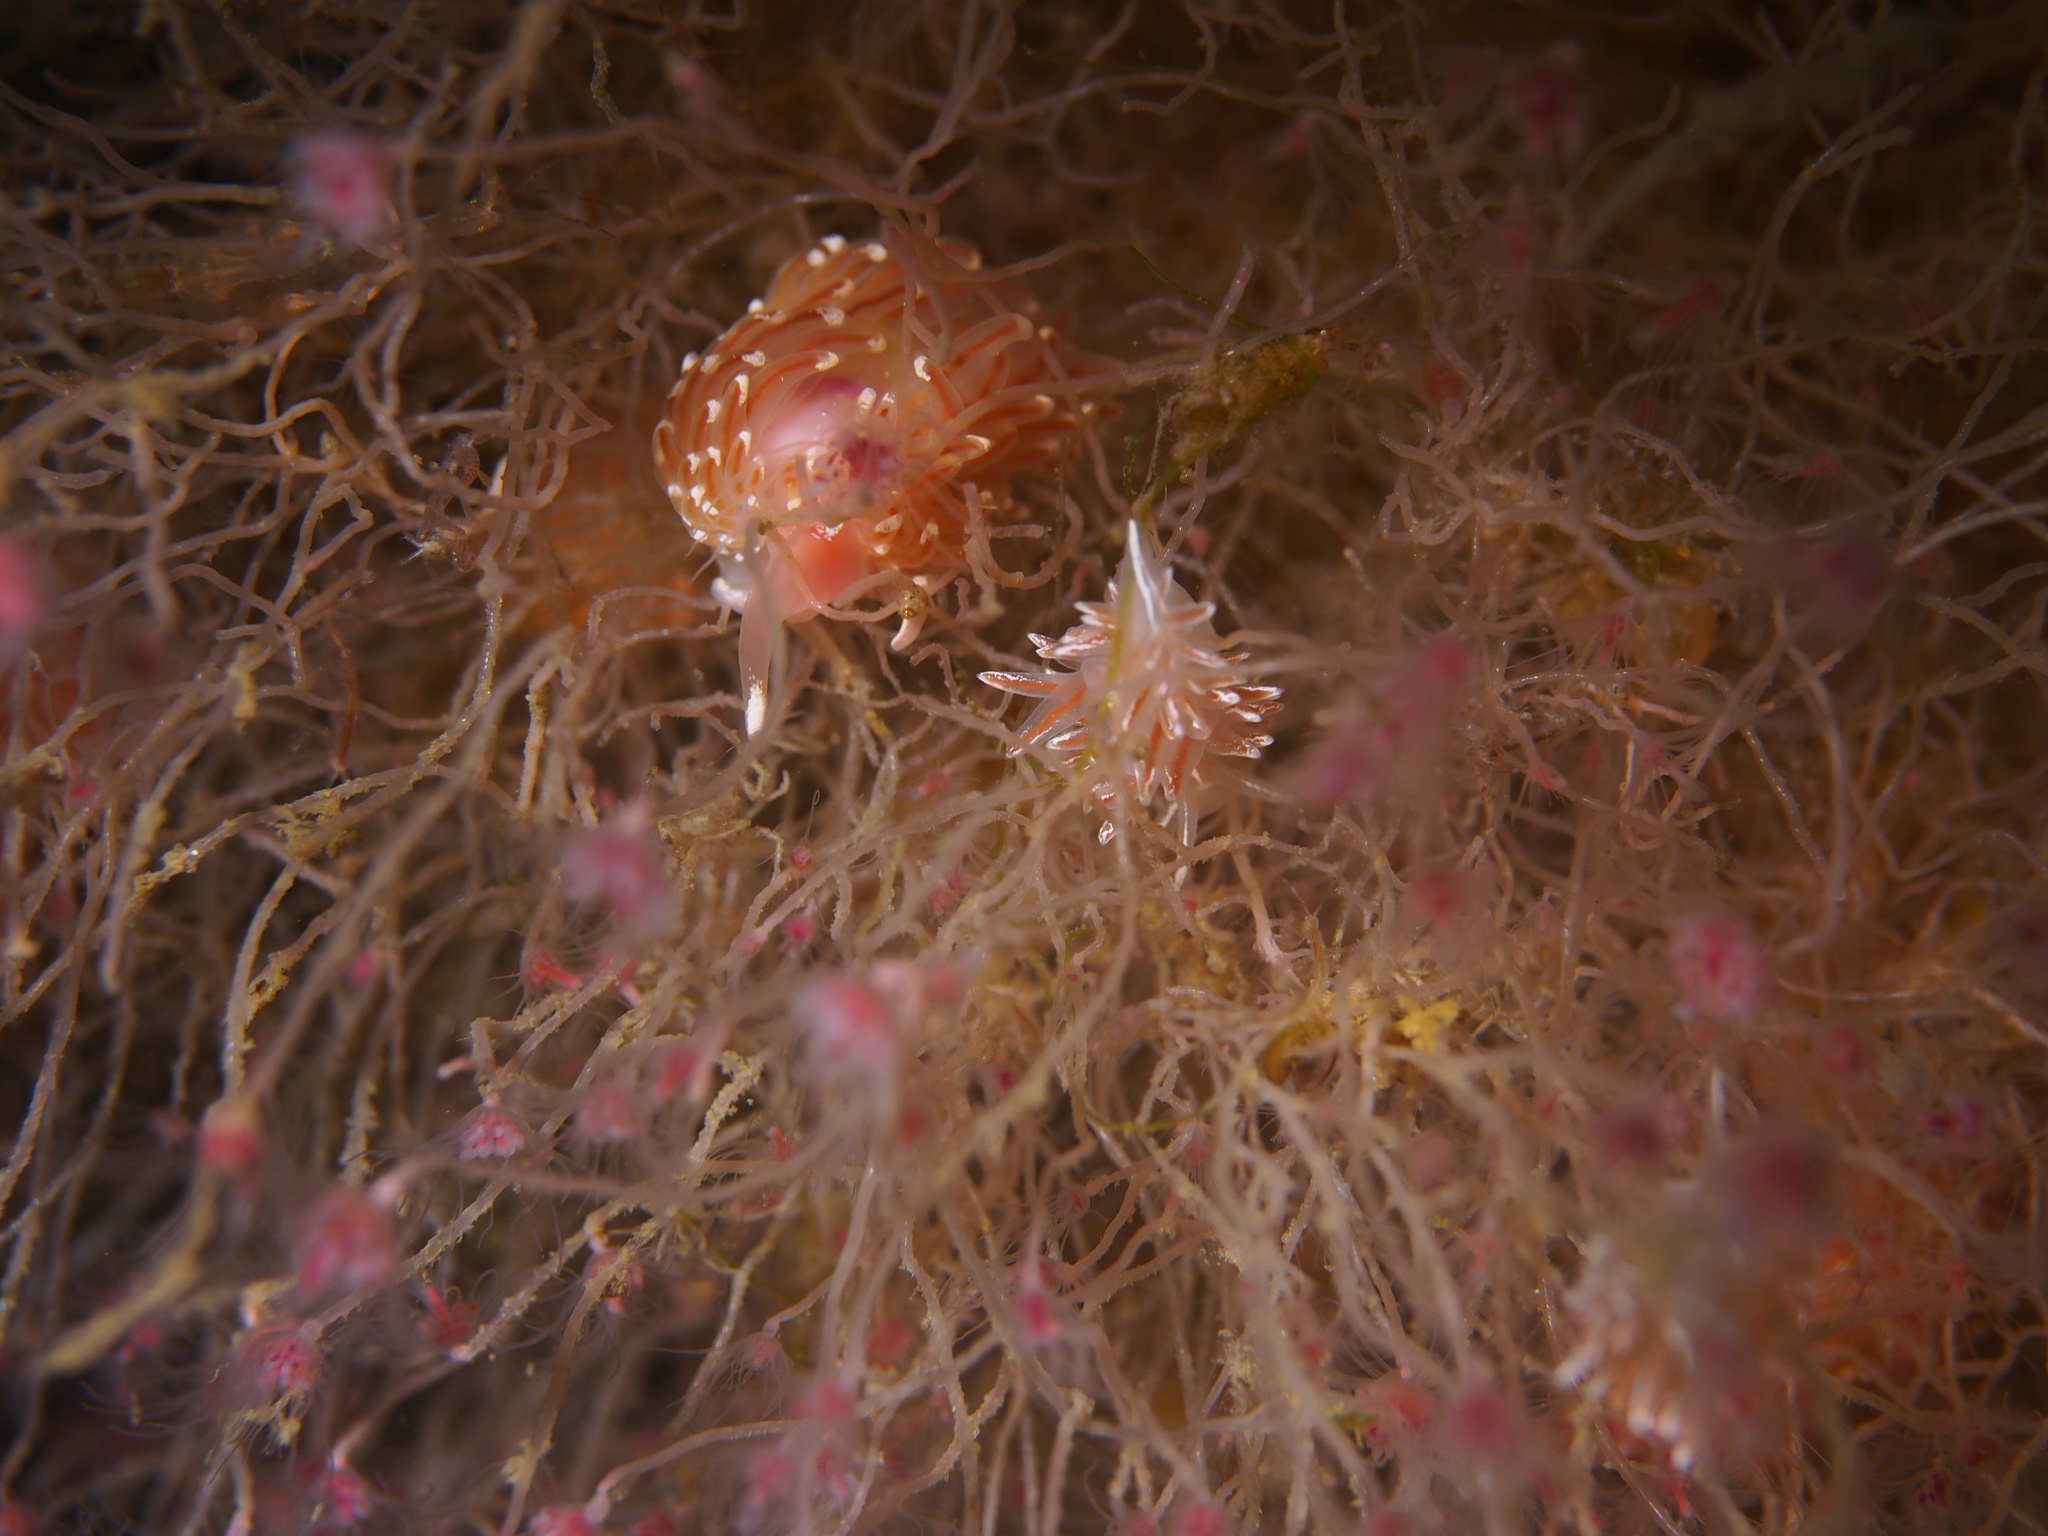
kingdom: Animalia
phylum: Mollusca
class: Gastropoda
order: Nudibranchia
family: Facelinidae
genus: Facelina
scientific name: Facelina bostoniensis
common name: Boston facelina
